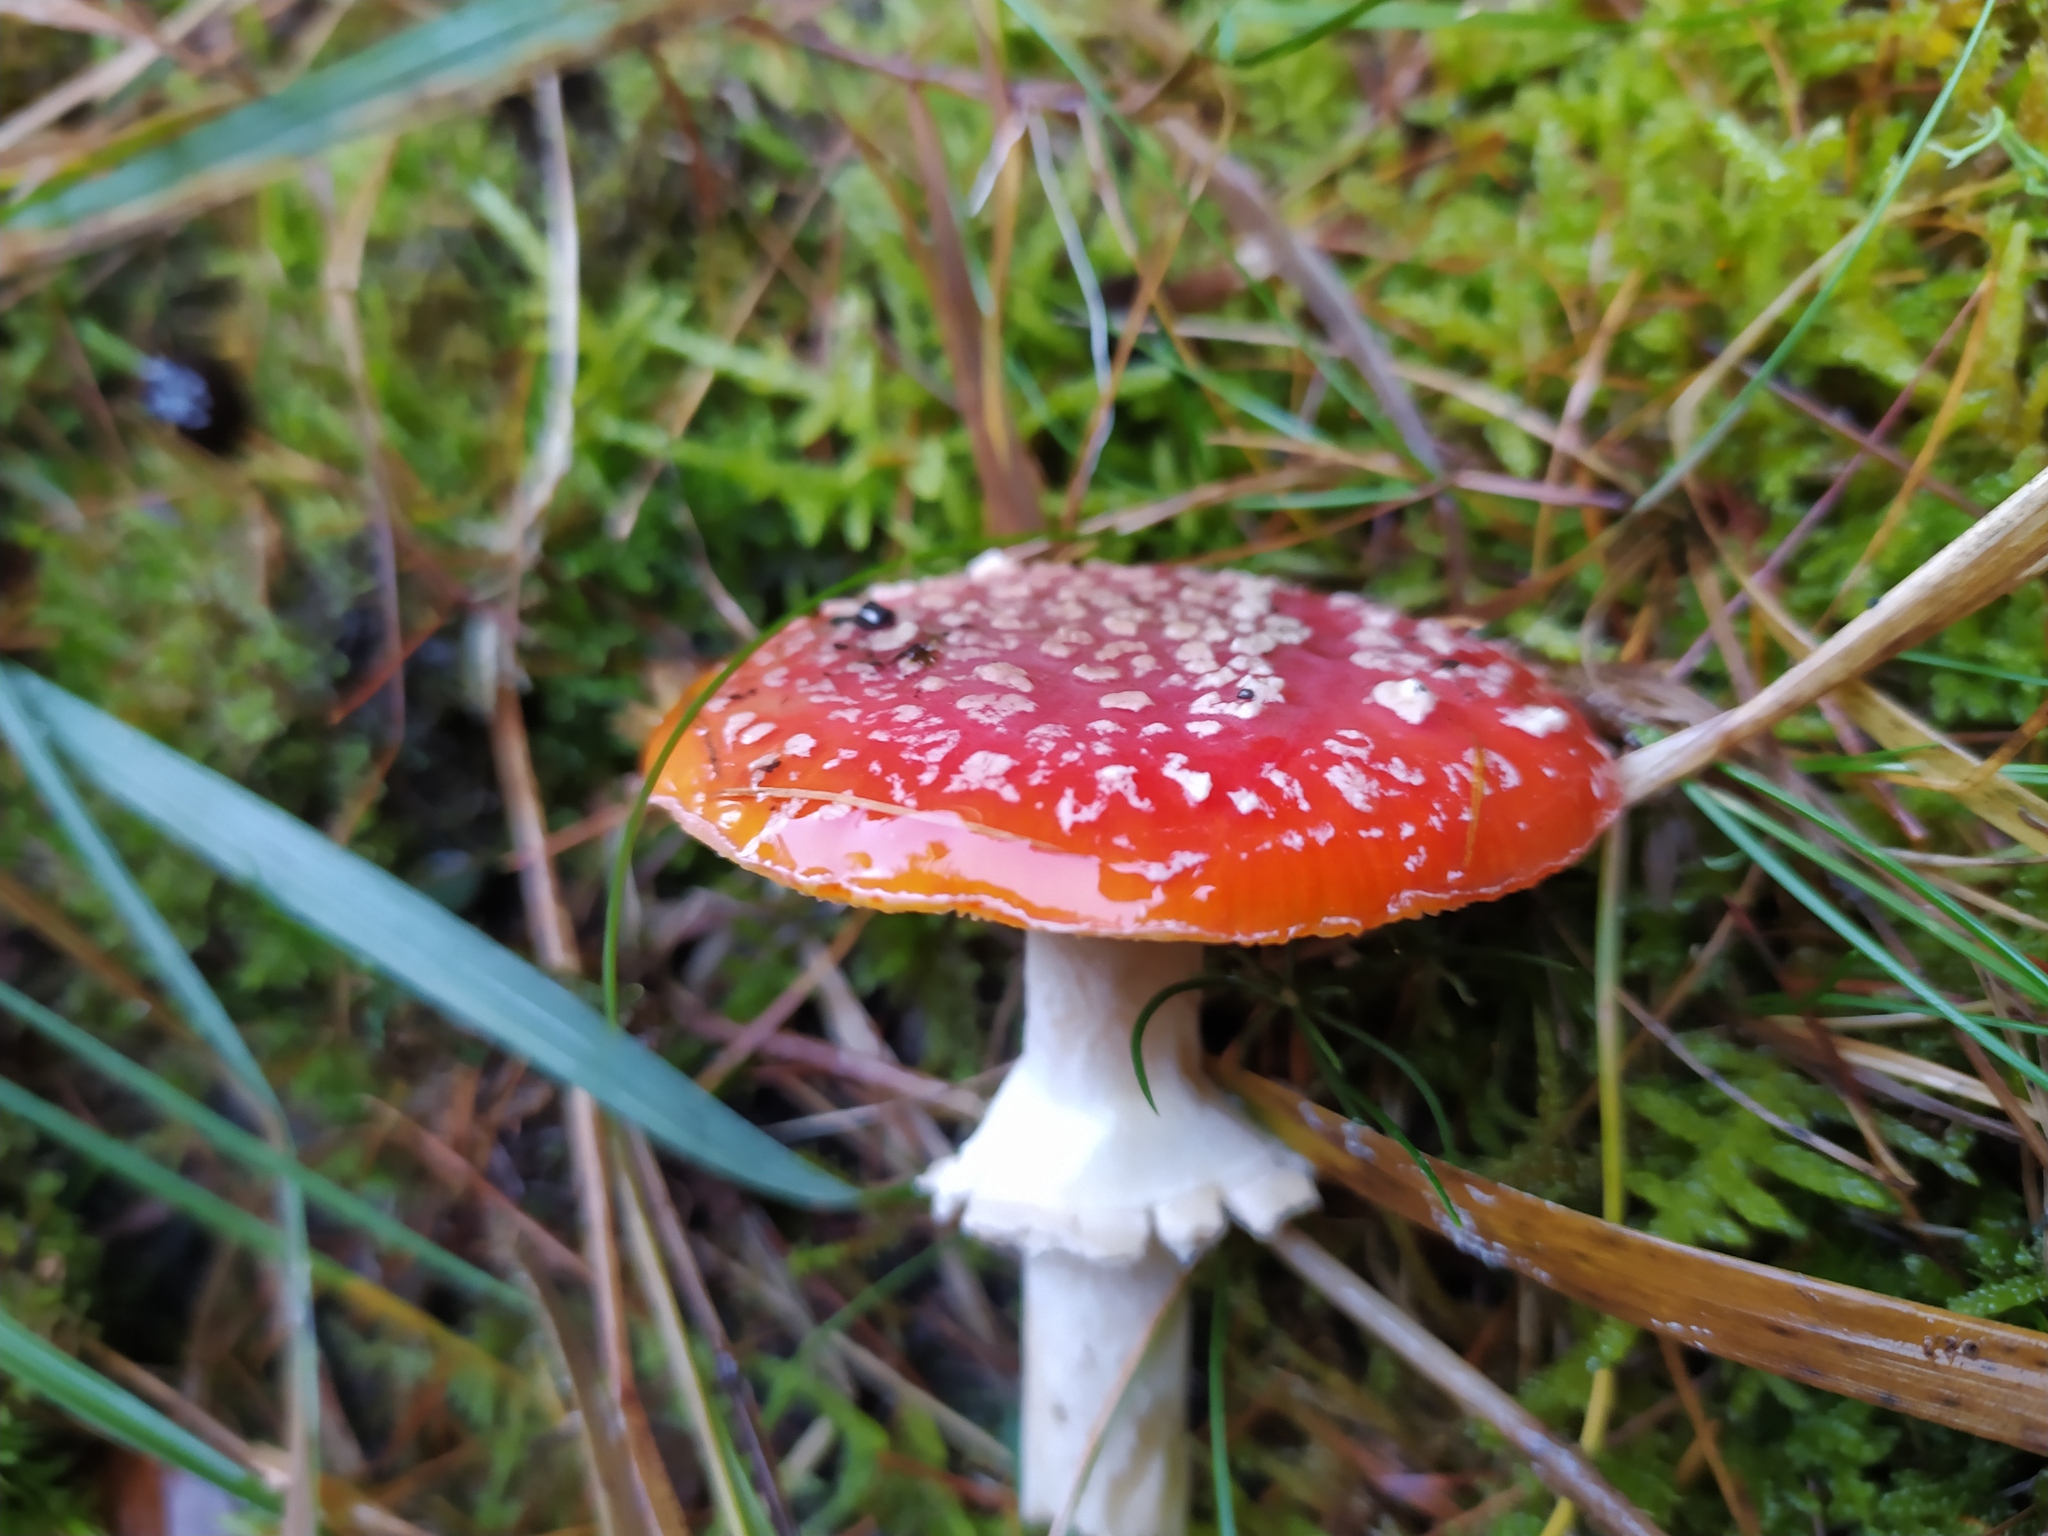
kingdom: Fungi
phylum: Basidiomycota
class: Agaricomycetes
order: Agaricales
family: Amanitaceae
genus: Amanita
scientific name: Amanita muscaria
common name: Fly agaric
